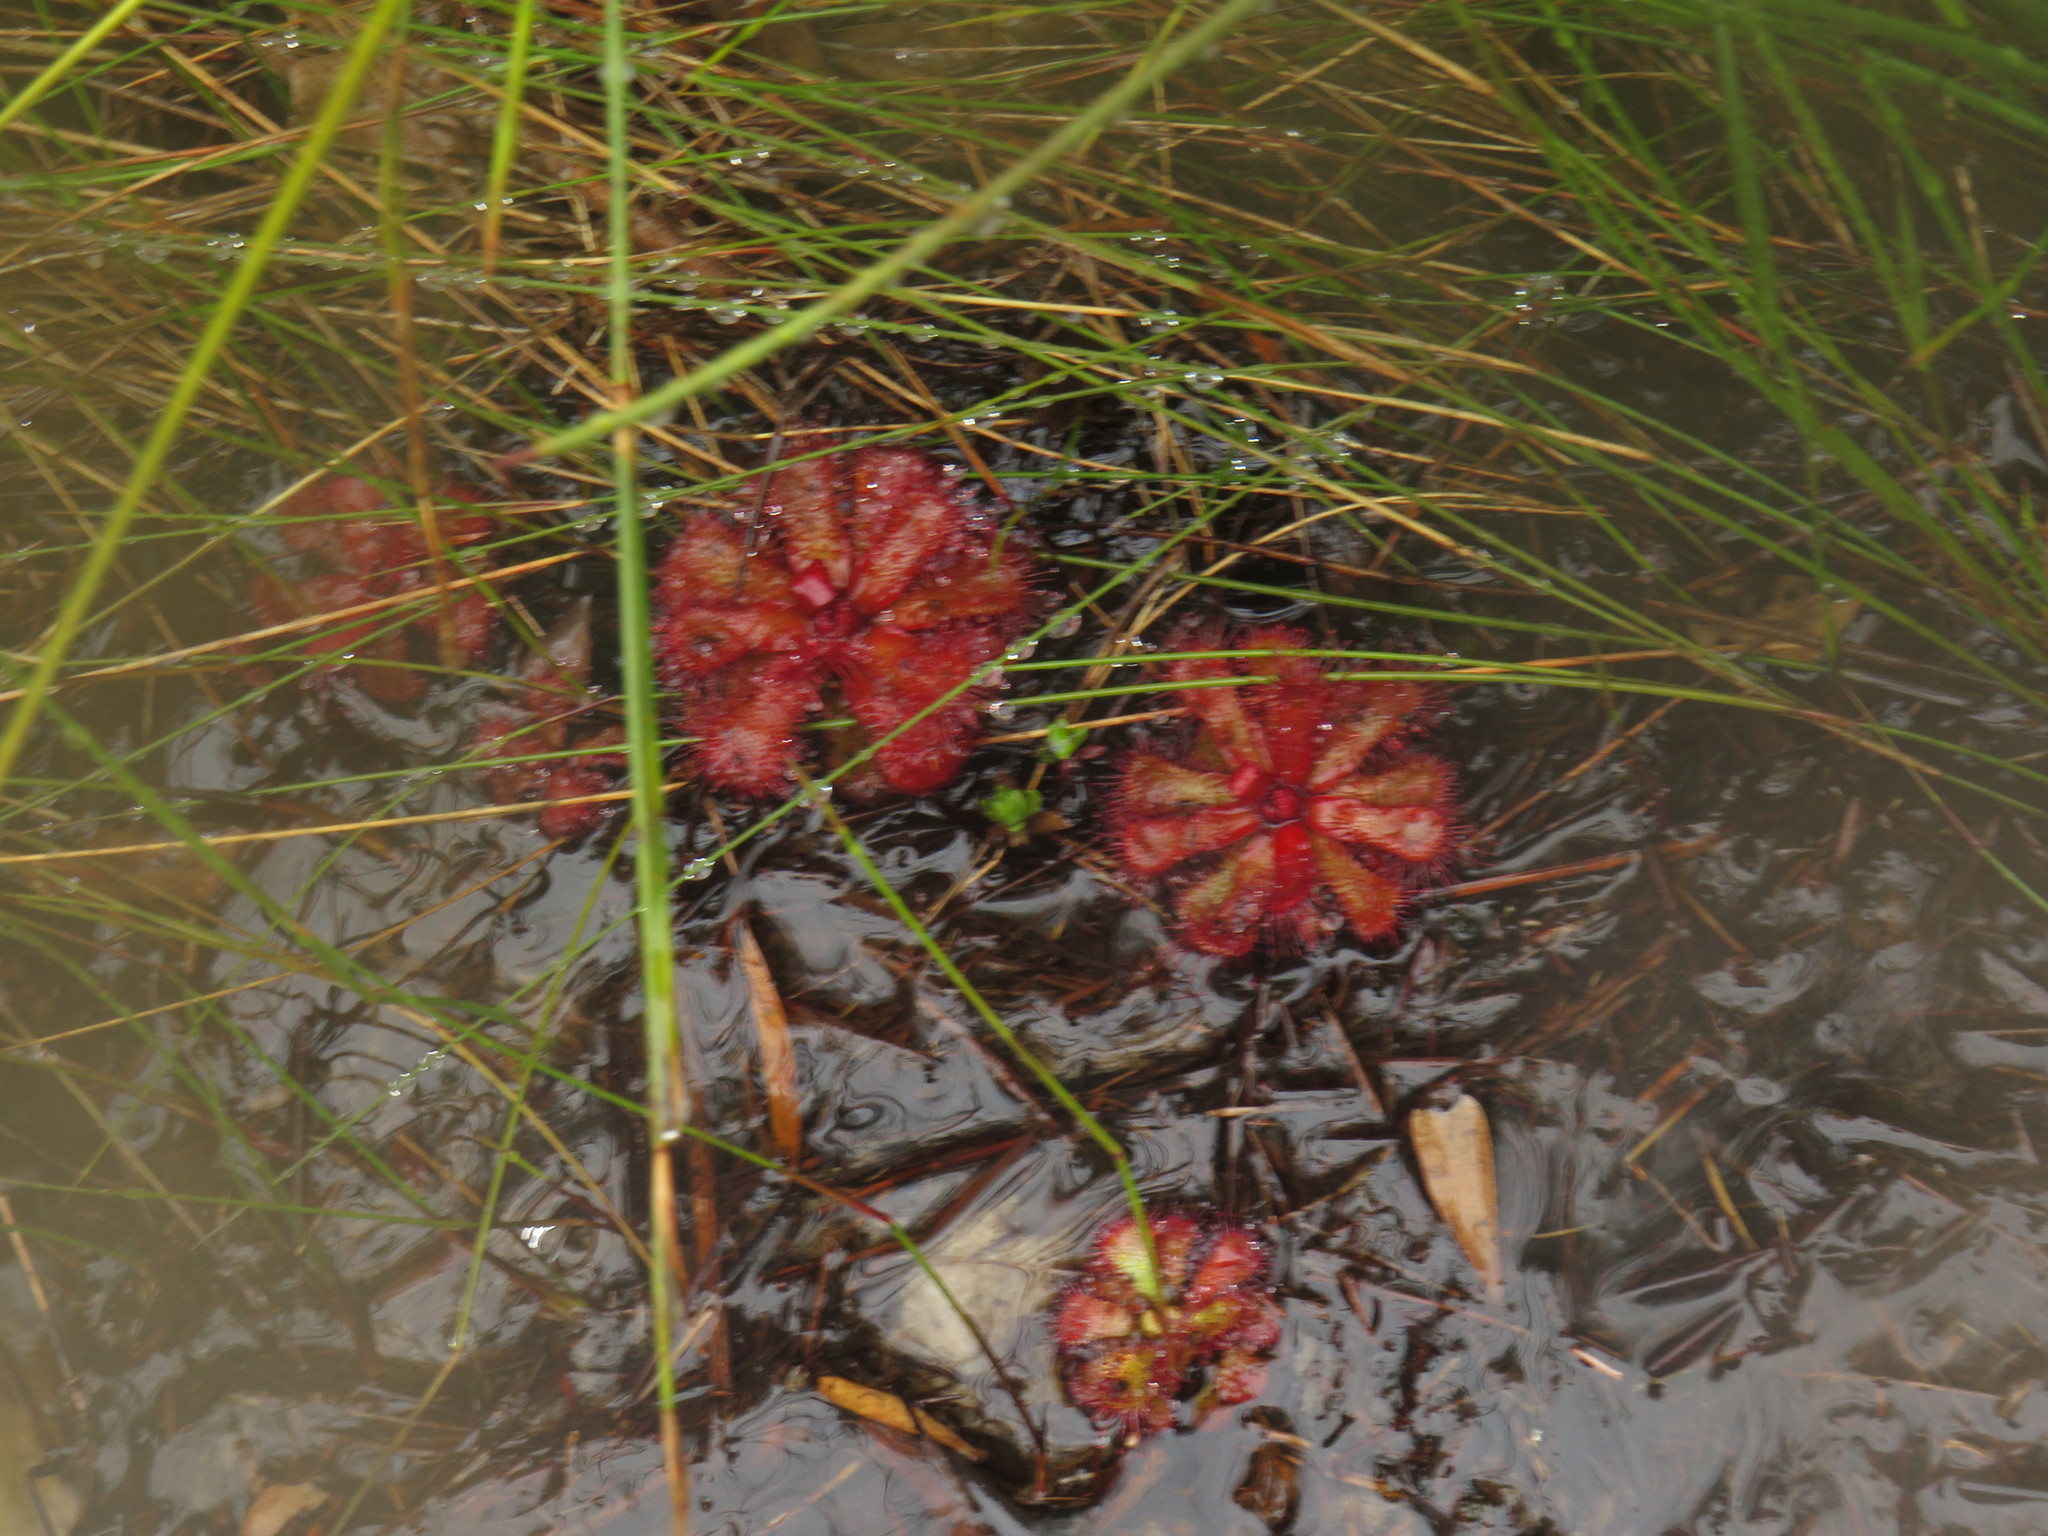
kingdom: Plantae
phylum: Tracheophyta
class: Magnoliopsida
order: Caryophyllales
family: Droseraceae
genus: Drosera
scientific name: Drosera cuneifolia
